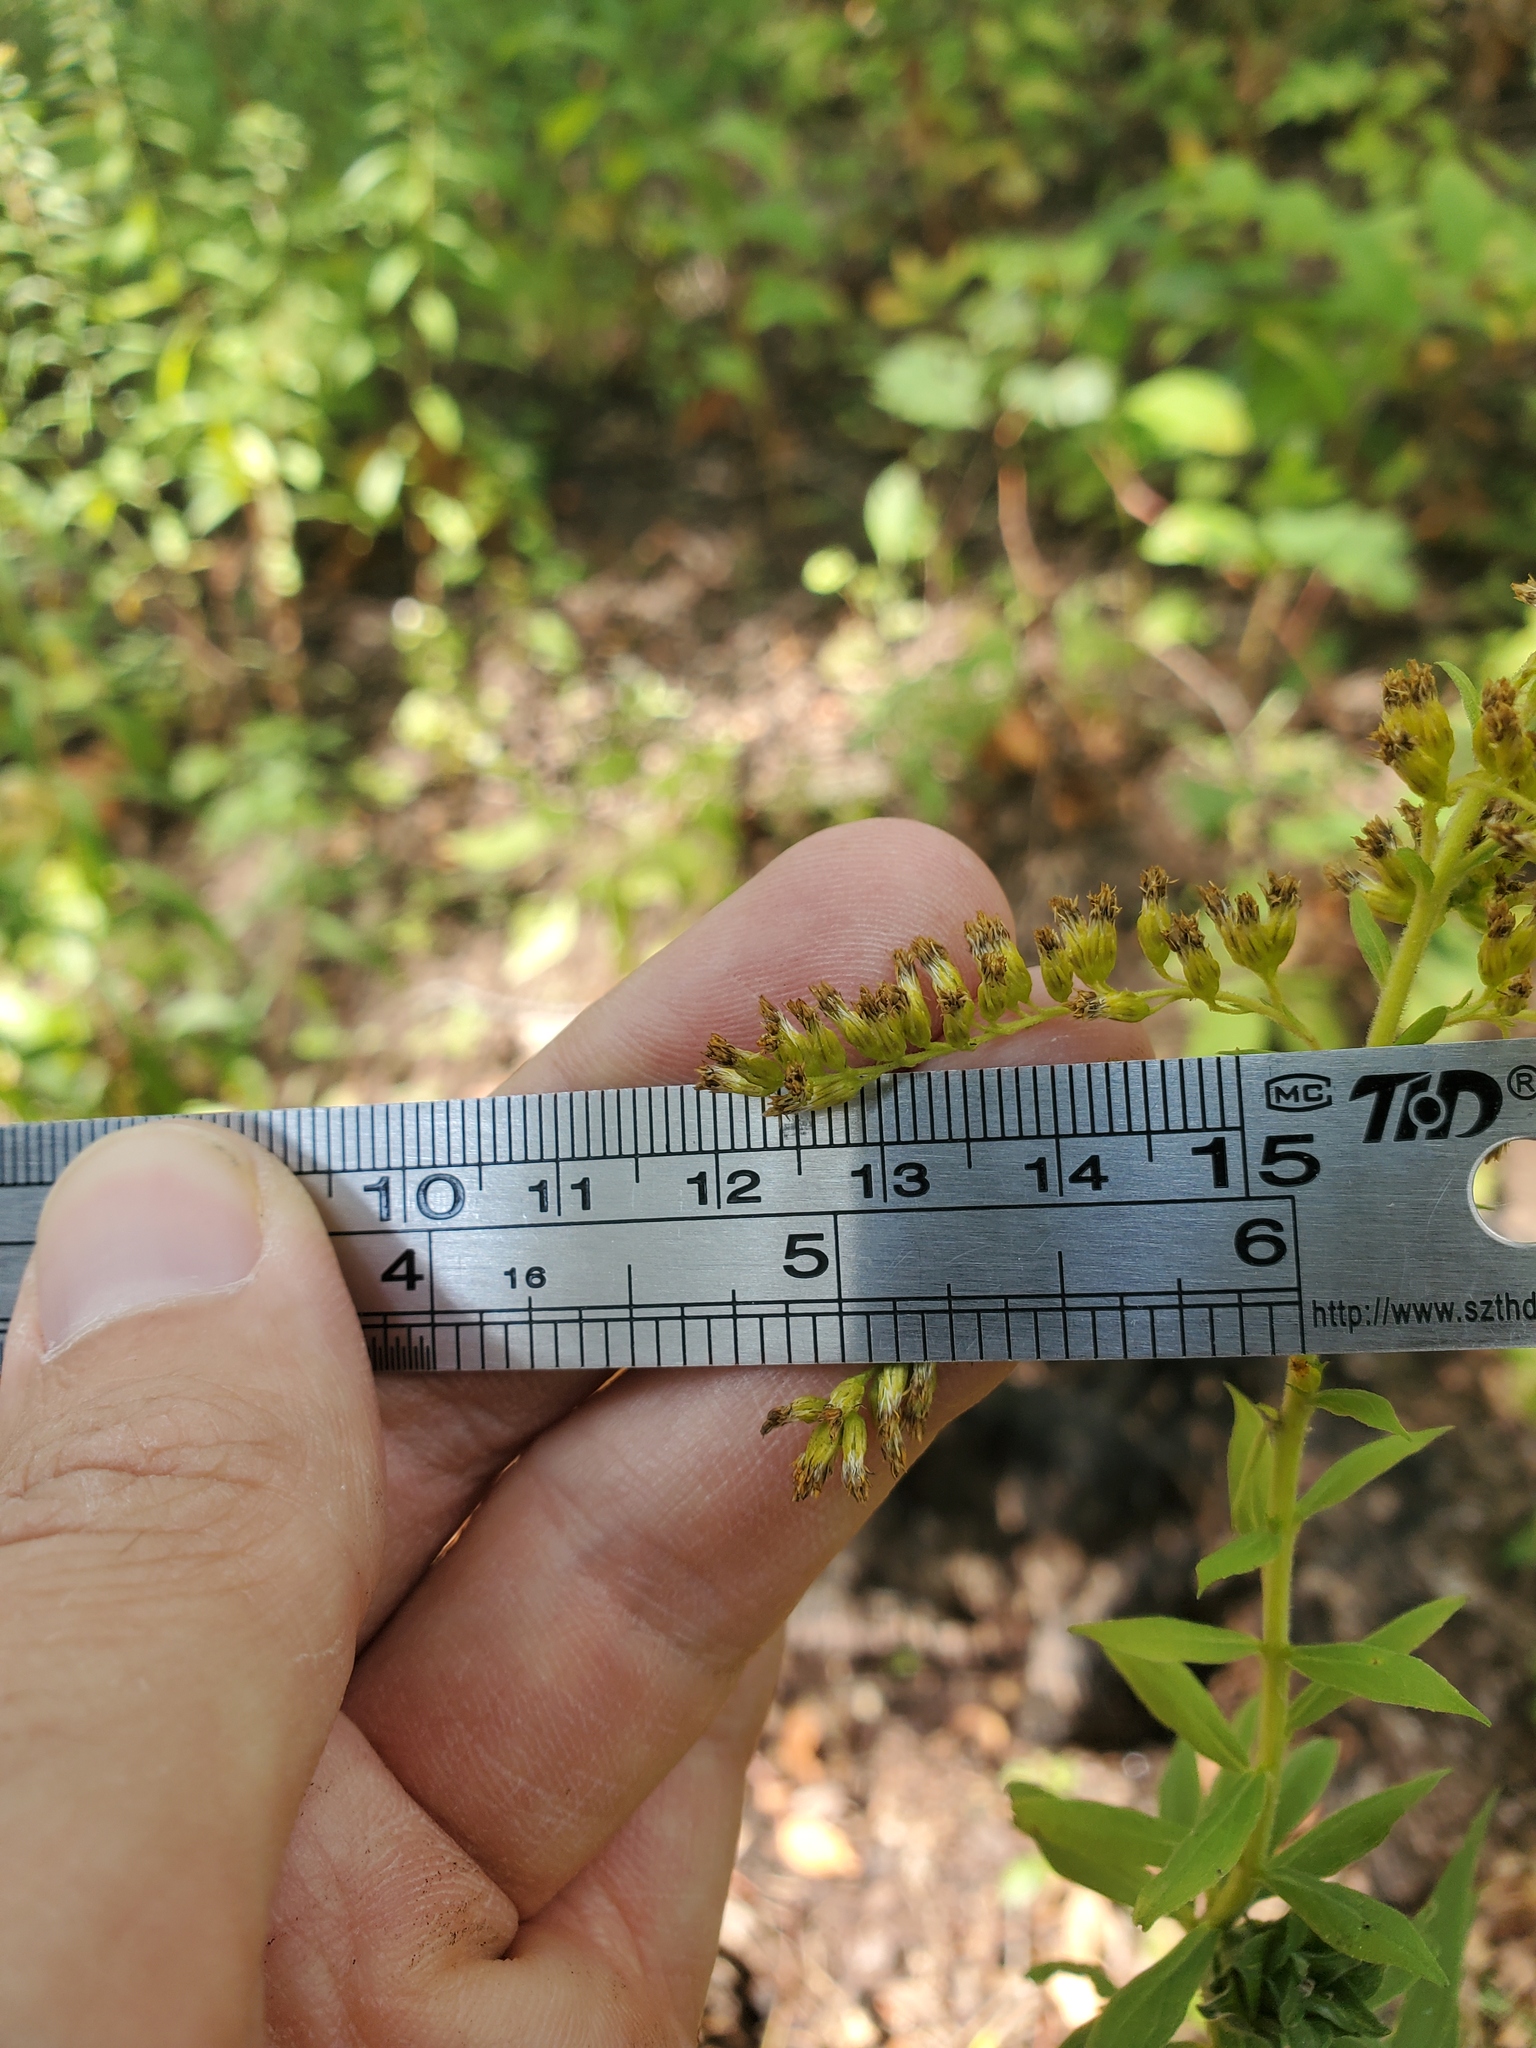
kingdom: Plantae
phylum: Tracheophyta
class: Magnoliopsida
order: Asterales
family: Asteraceae
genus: Solidago
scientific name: Solidago canadensis
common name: Canada goldenrod
